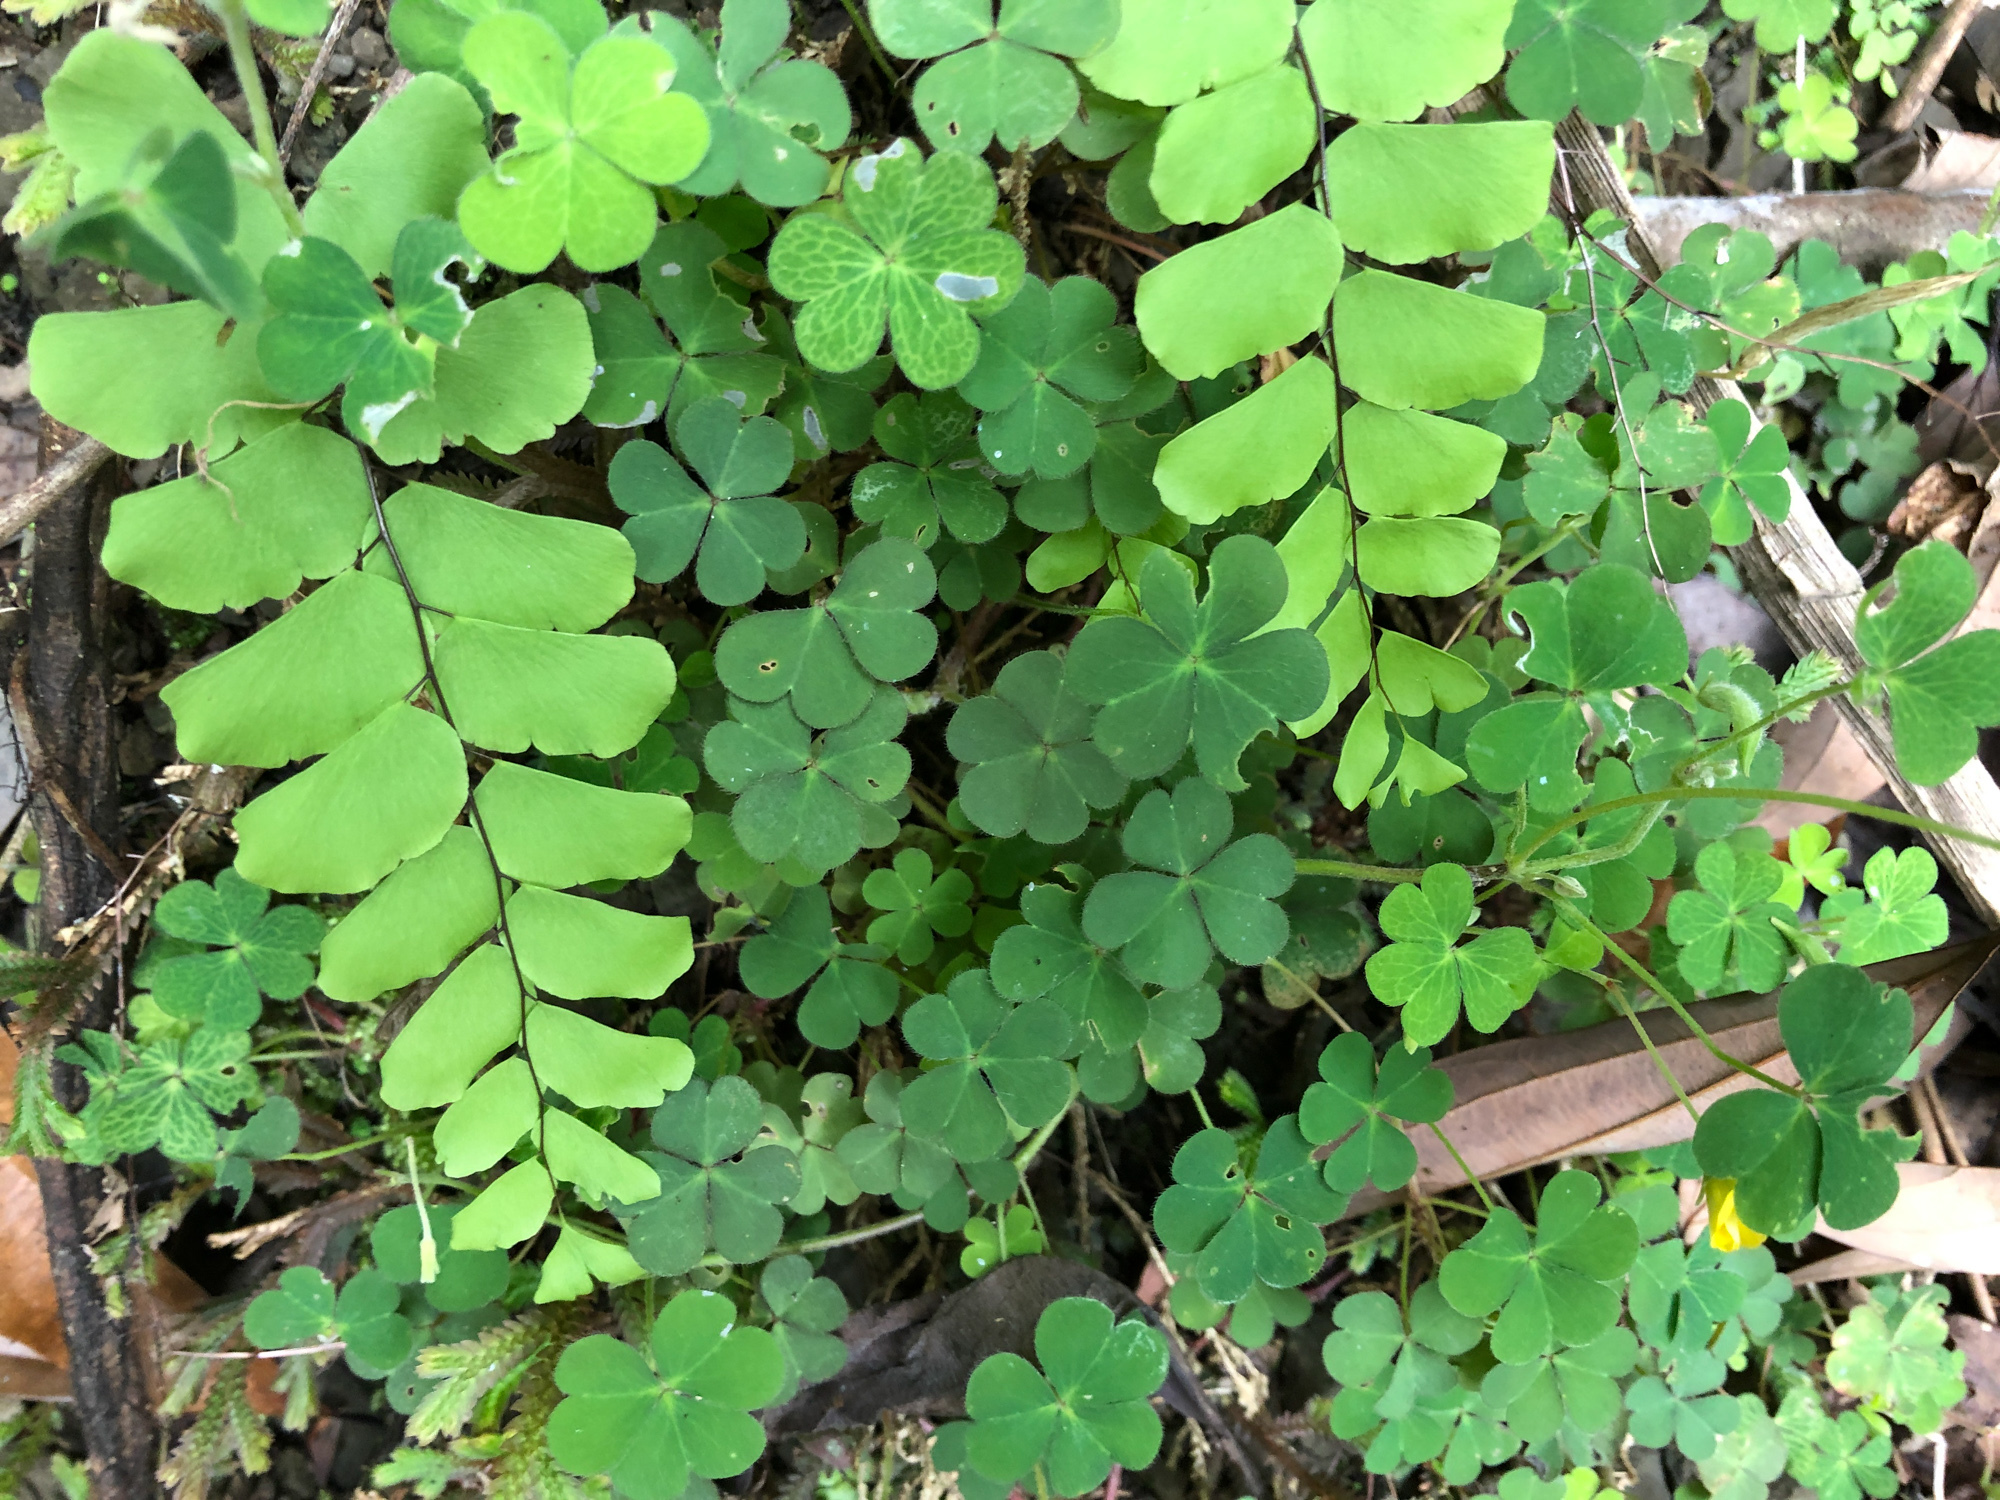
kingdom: Plantae
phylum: Tracheophyta
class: Magnoliopsida
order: Oxalidales
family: Oxalidaceae
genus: Oxalis
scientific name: Oxalis corniculata
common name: Procumbent yellow-sorrel
